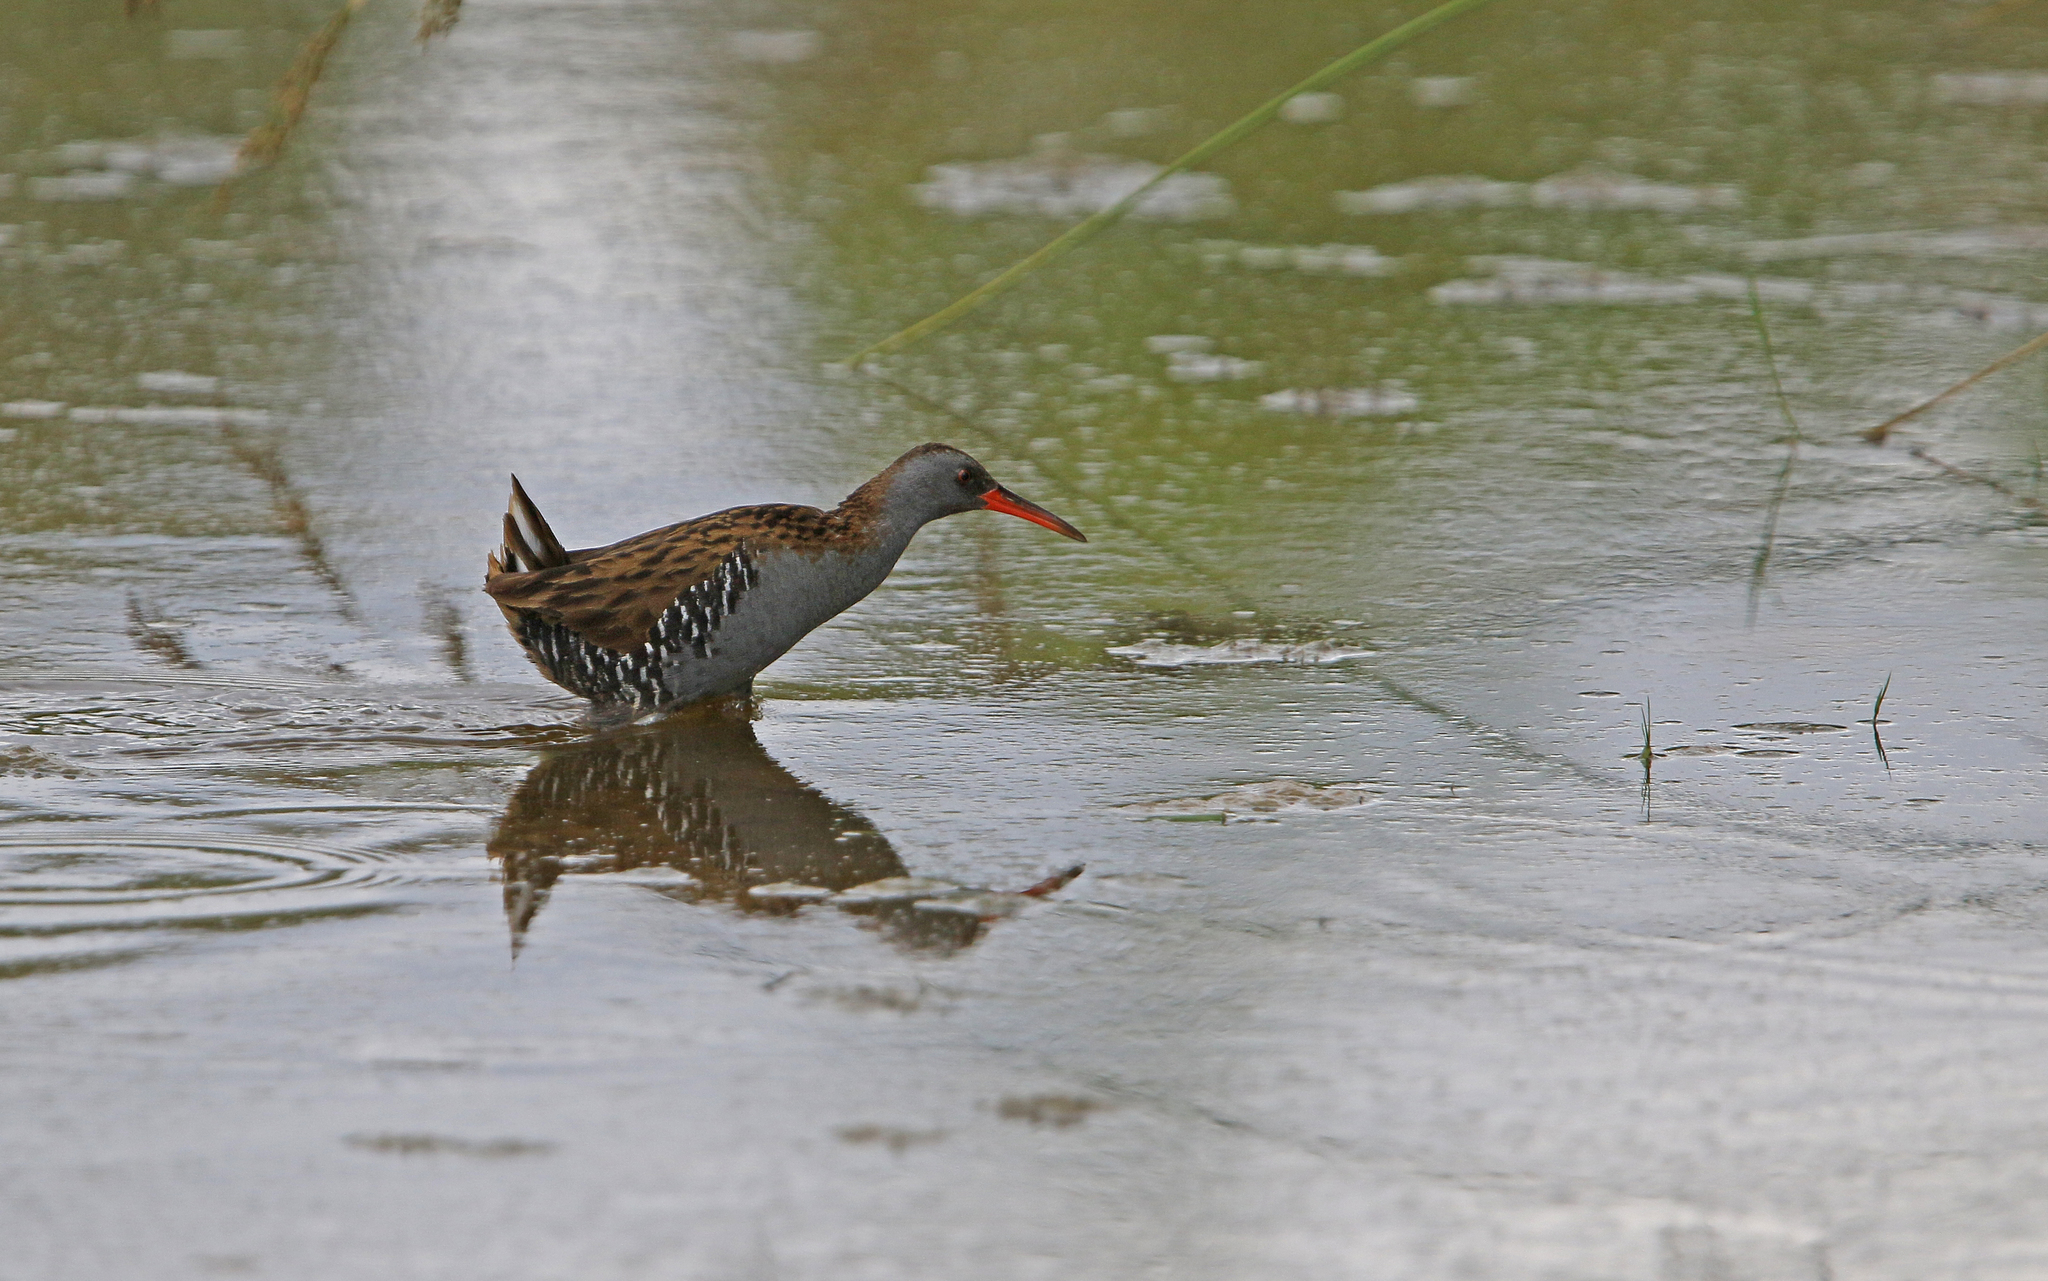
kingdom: Animalia
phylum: Chordata
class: Aves
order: Gruiformes
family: Rallidae
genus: Rallus
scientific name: Rallus aquaticus
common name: Water rail
